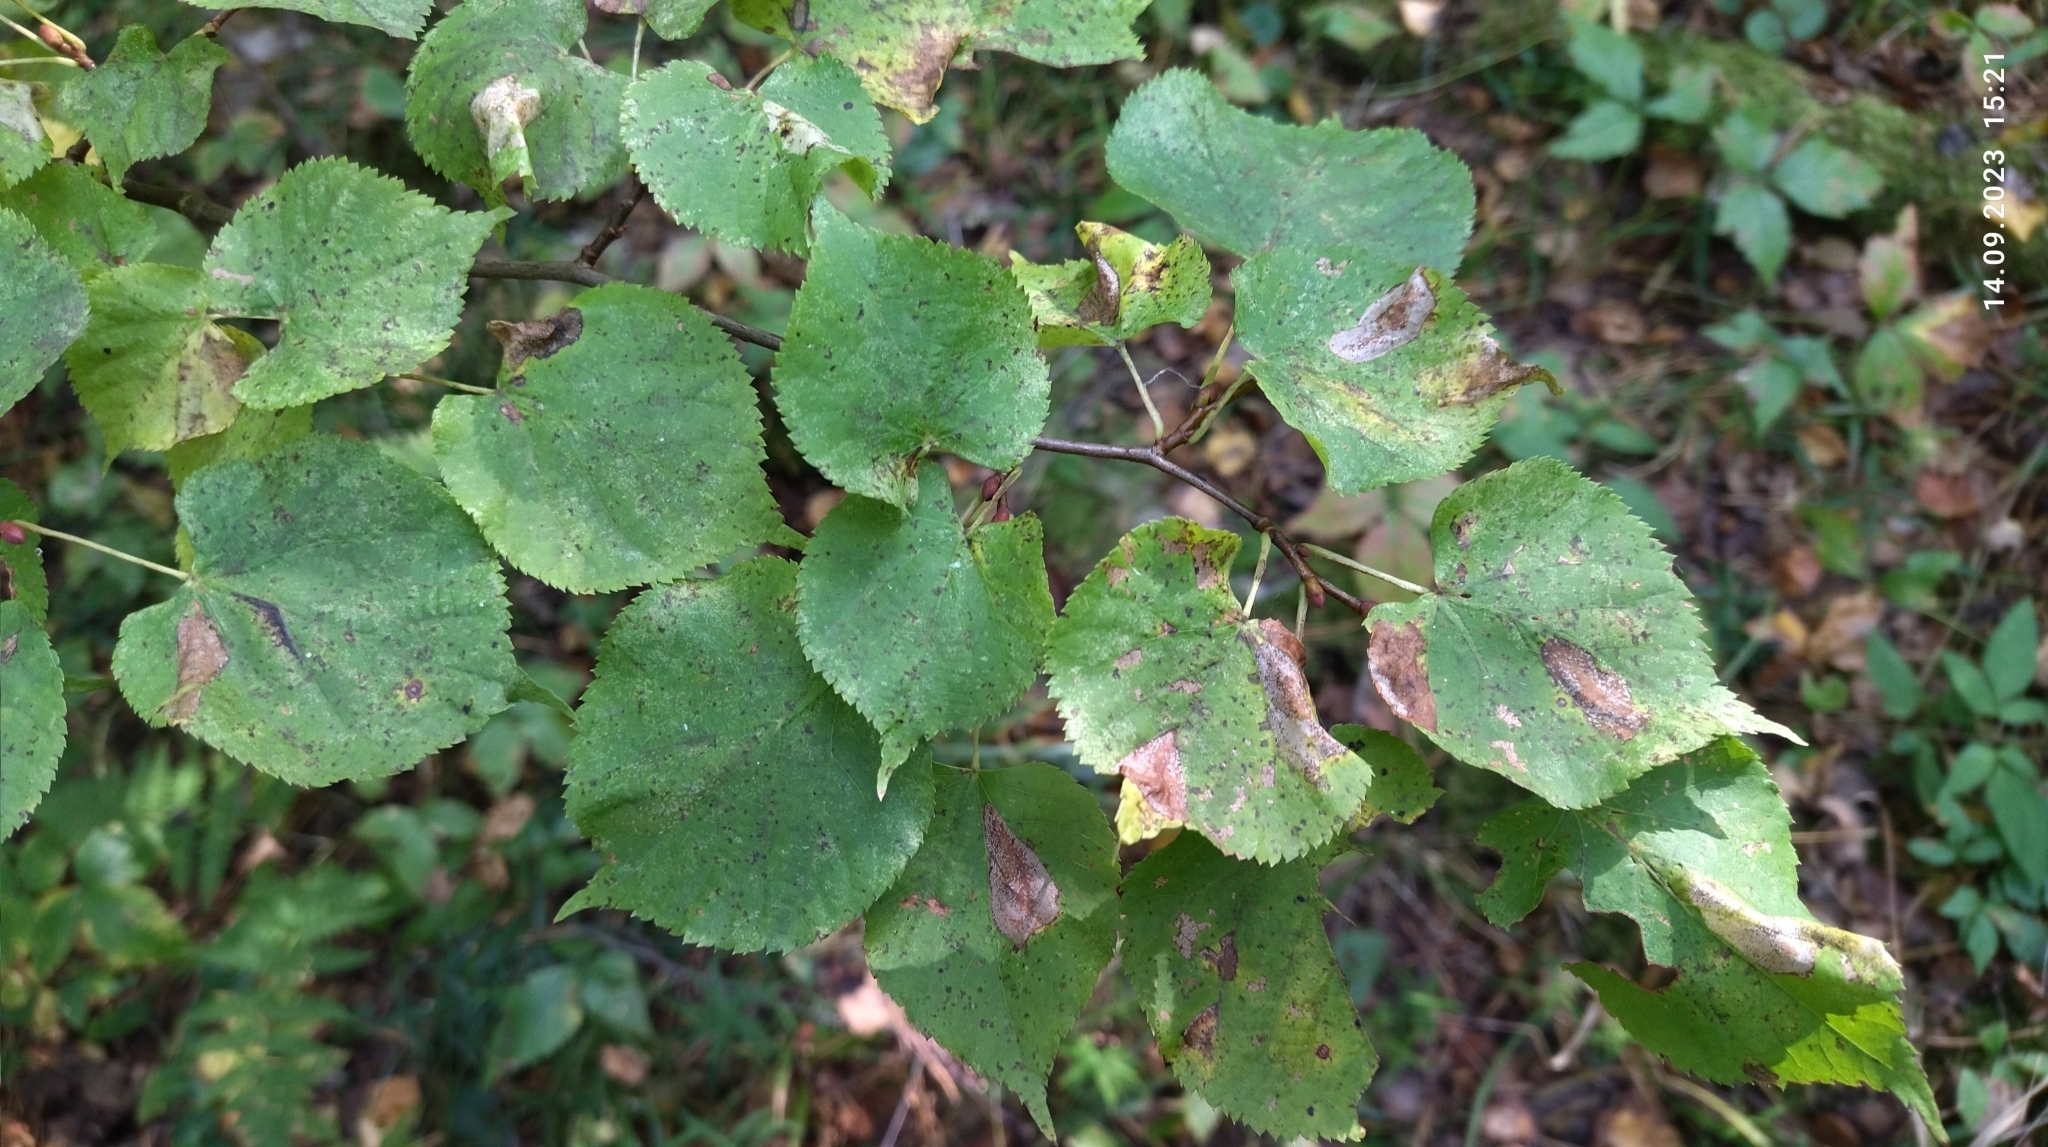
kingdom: Plantae
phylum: Tracheophyta
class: Magnoliopsida
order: Malvales
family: Malvaceae
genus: Tilia
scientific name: Tilia cordata
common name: Small-leaved lime
